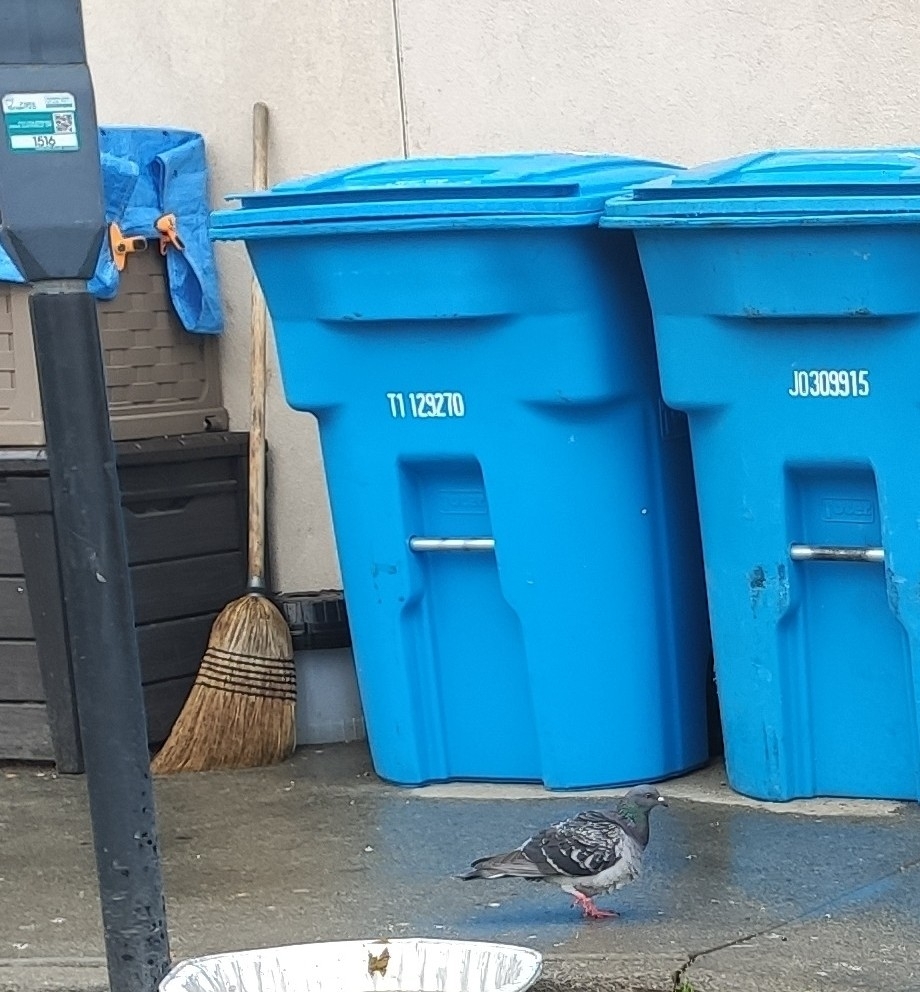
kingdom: Animalia
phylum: Chordata
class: Aves
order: Columbiformes
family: Columbidae
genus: Columba
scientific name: Columba livia
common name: Rock pigeon
